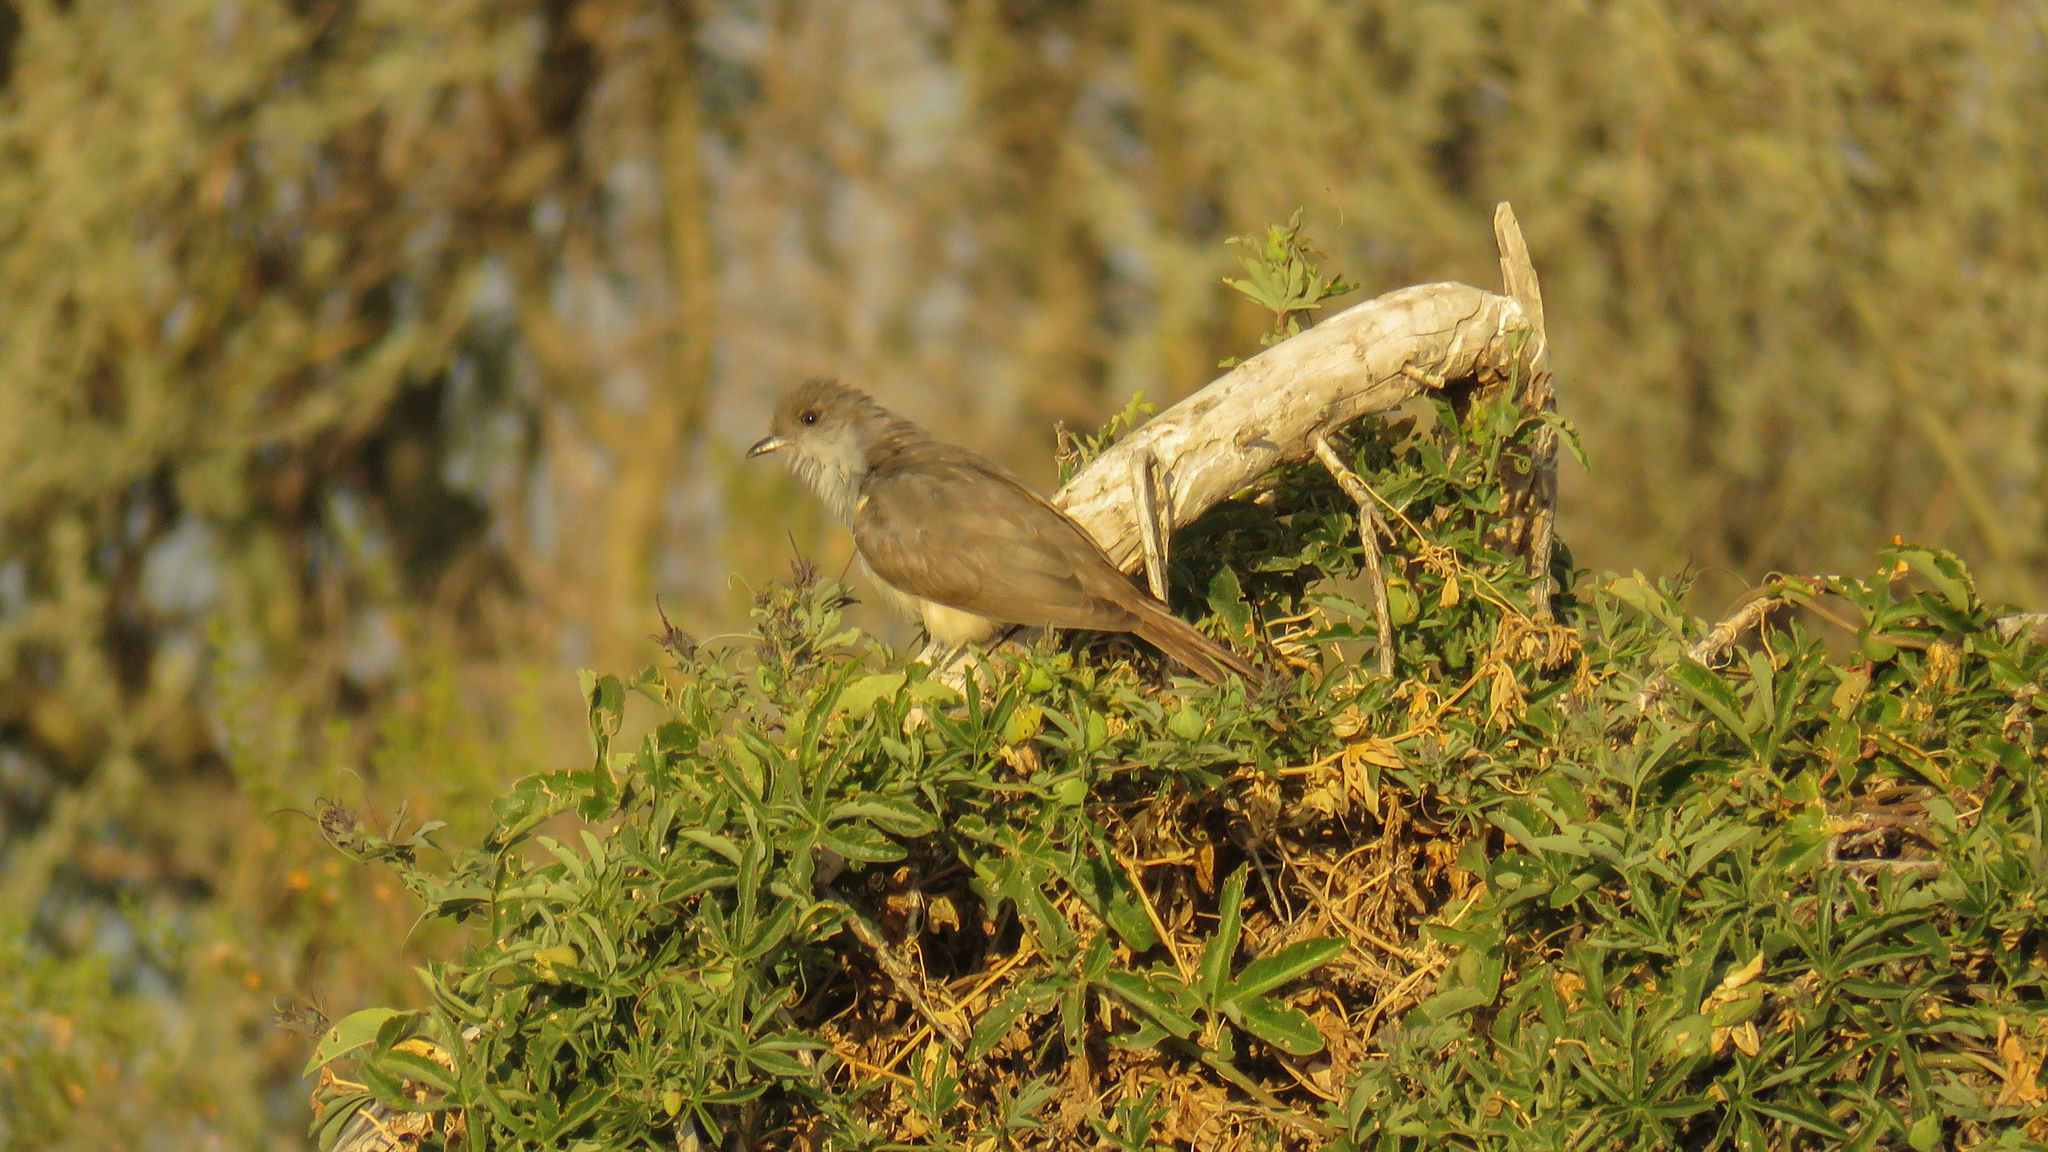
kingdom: Animalia
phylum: Chordata
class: Aves
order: Cuculiformes
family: Cuculidae
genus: Coccyzus
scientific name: Coccyzus cinereus
